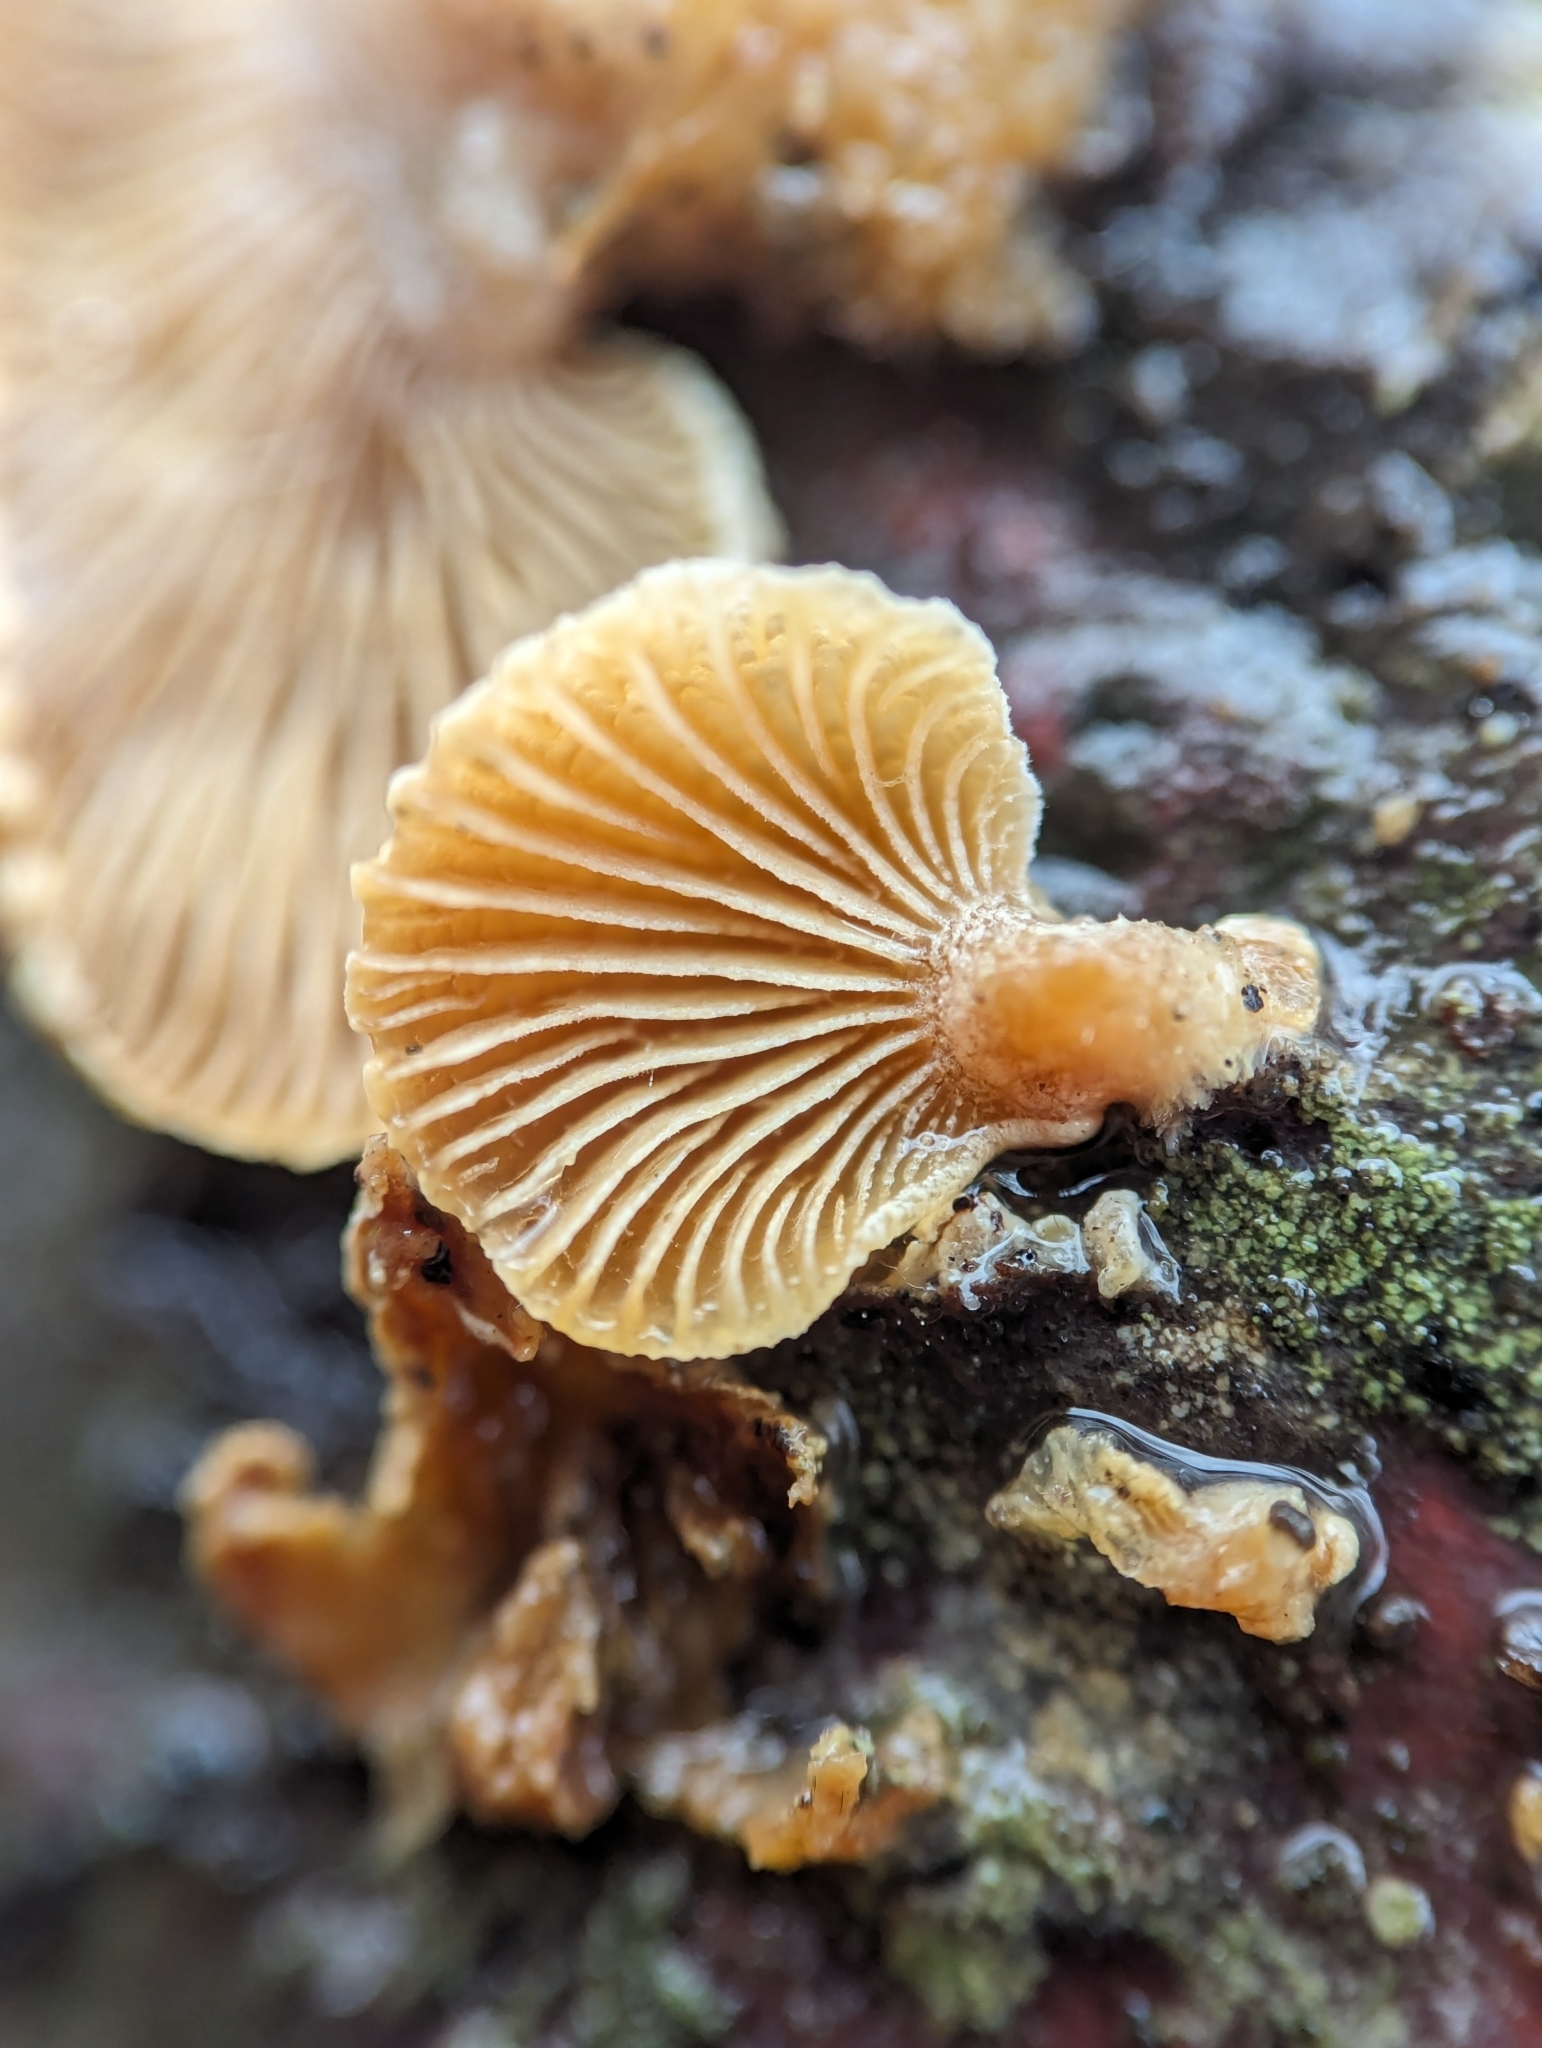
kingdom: Fungi
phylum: Basidiomycota
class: Agaricomycetes
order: Agaricales
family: Mycenaceae
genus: Panellus
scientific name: Panellus stipticus
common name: Bitter oysterling
